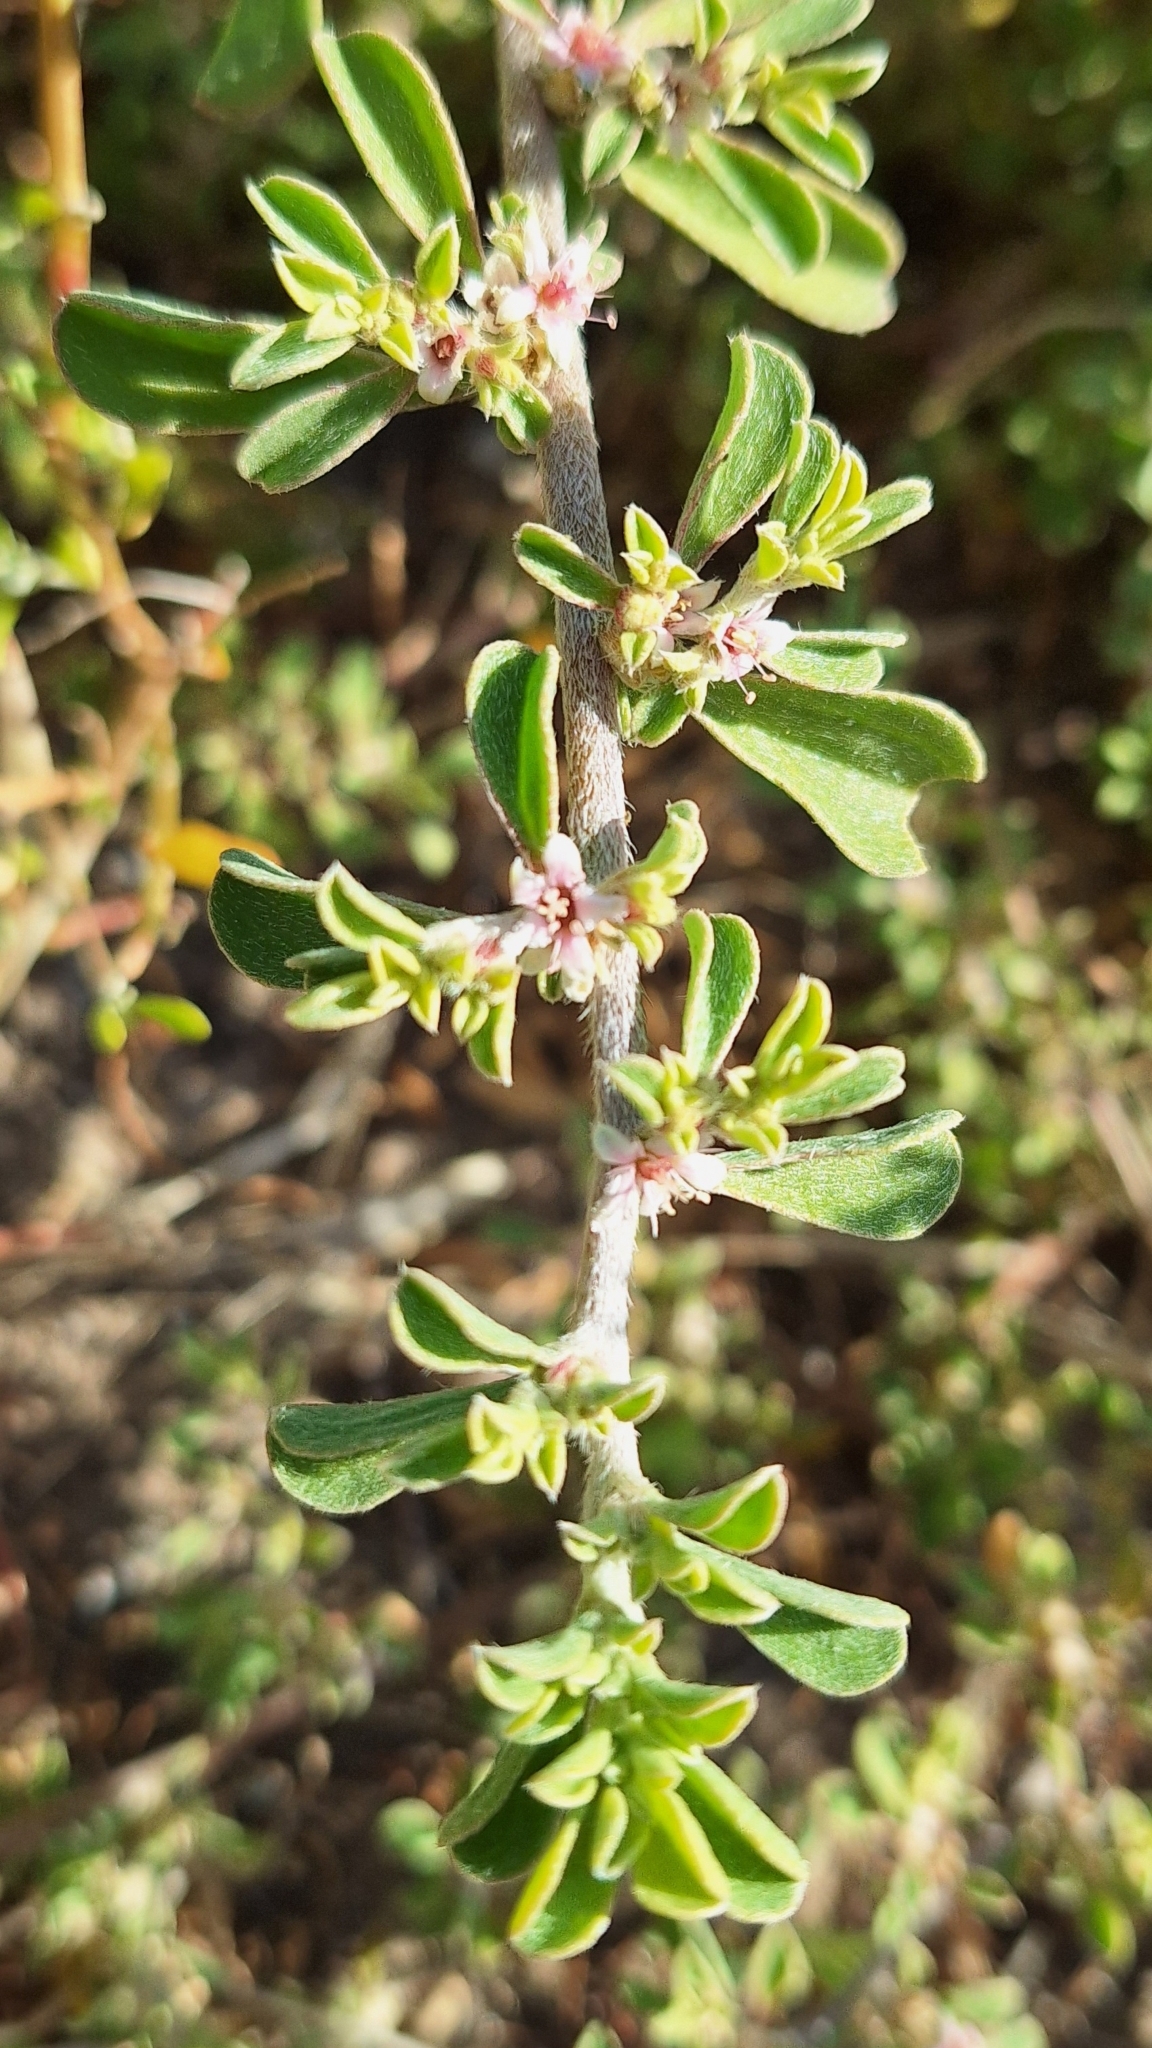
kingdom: Plantae
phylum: Tracheophyta
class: Magnoliopsida
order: Caryophyllales
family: Aizoaceae
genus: Aizoon
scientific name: Aizoon pubescens
